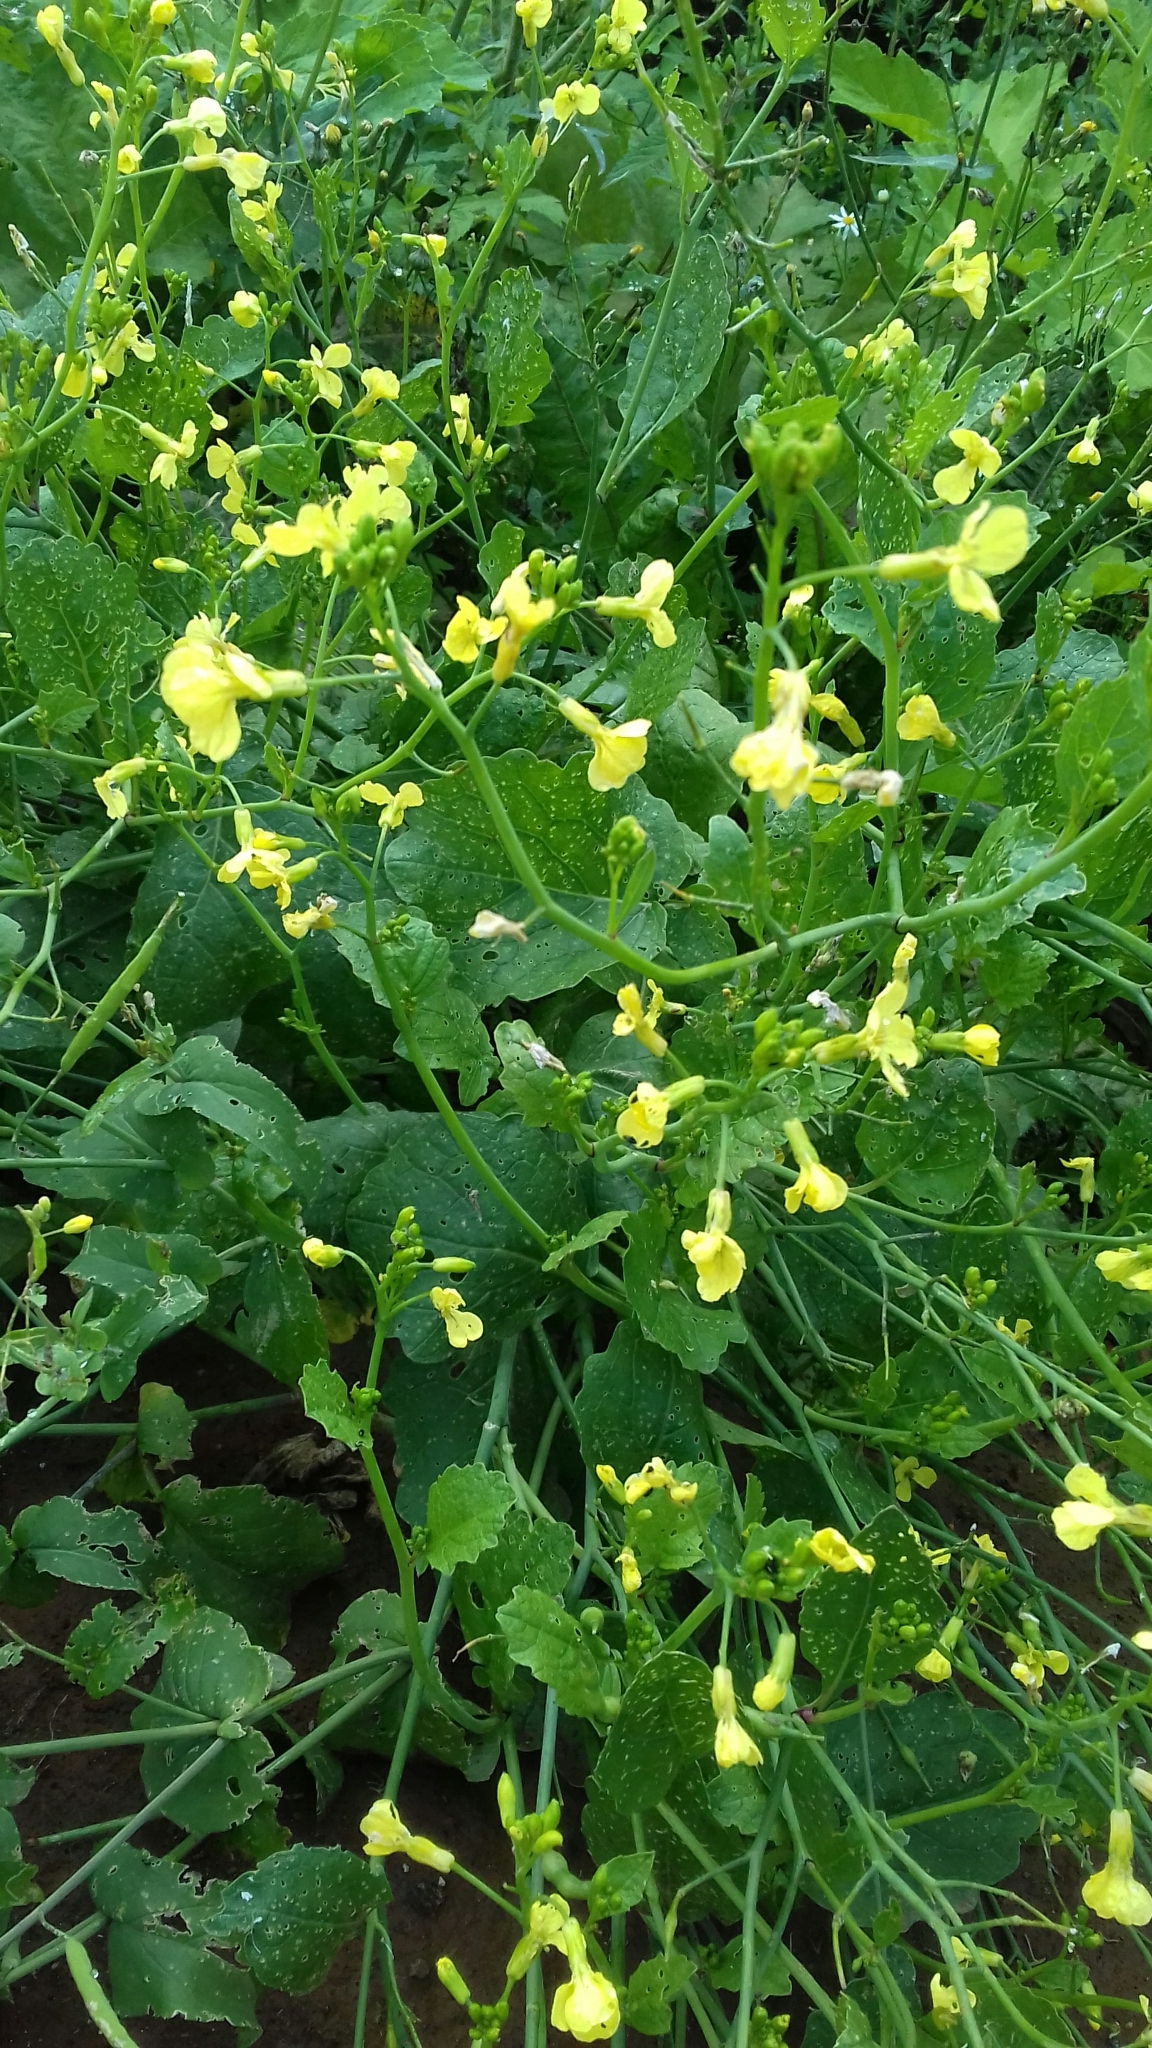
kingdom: Plantae
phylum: Tracheophyta
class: Magnoliopsida
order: Brassicales
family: Brassicaceae
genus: Raphanus
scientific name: Raphanus raphanistrum
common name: Wild radish
